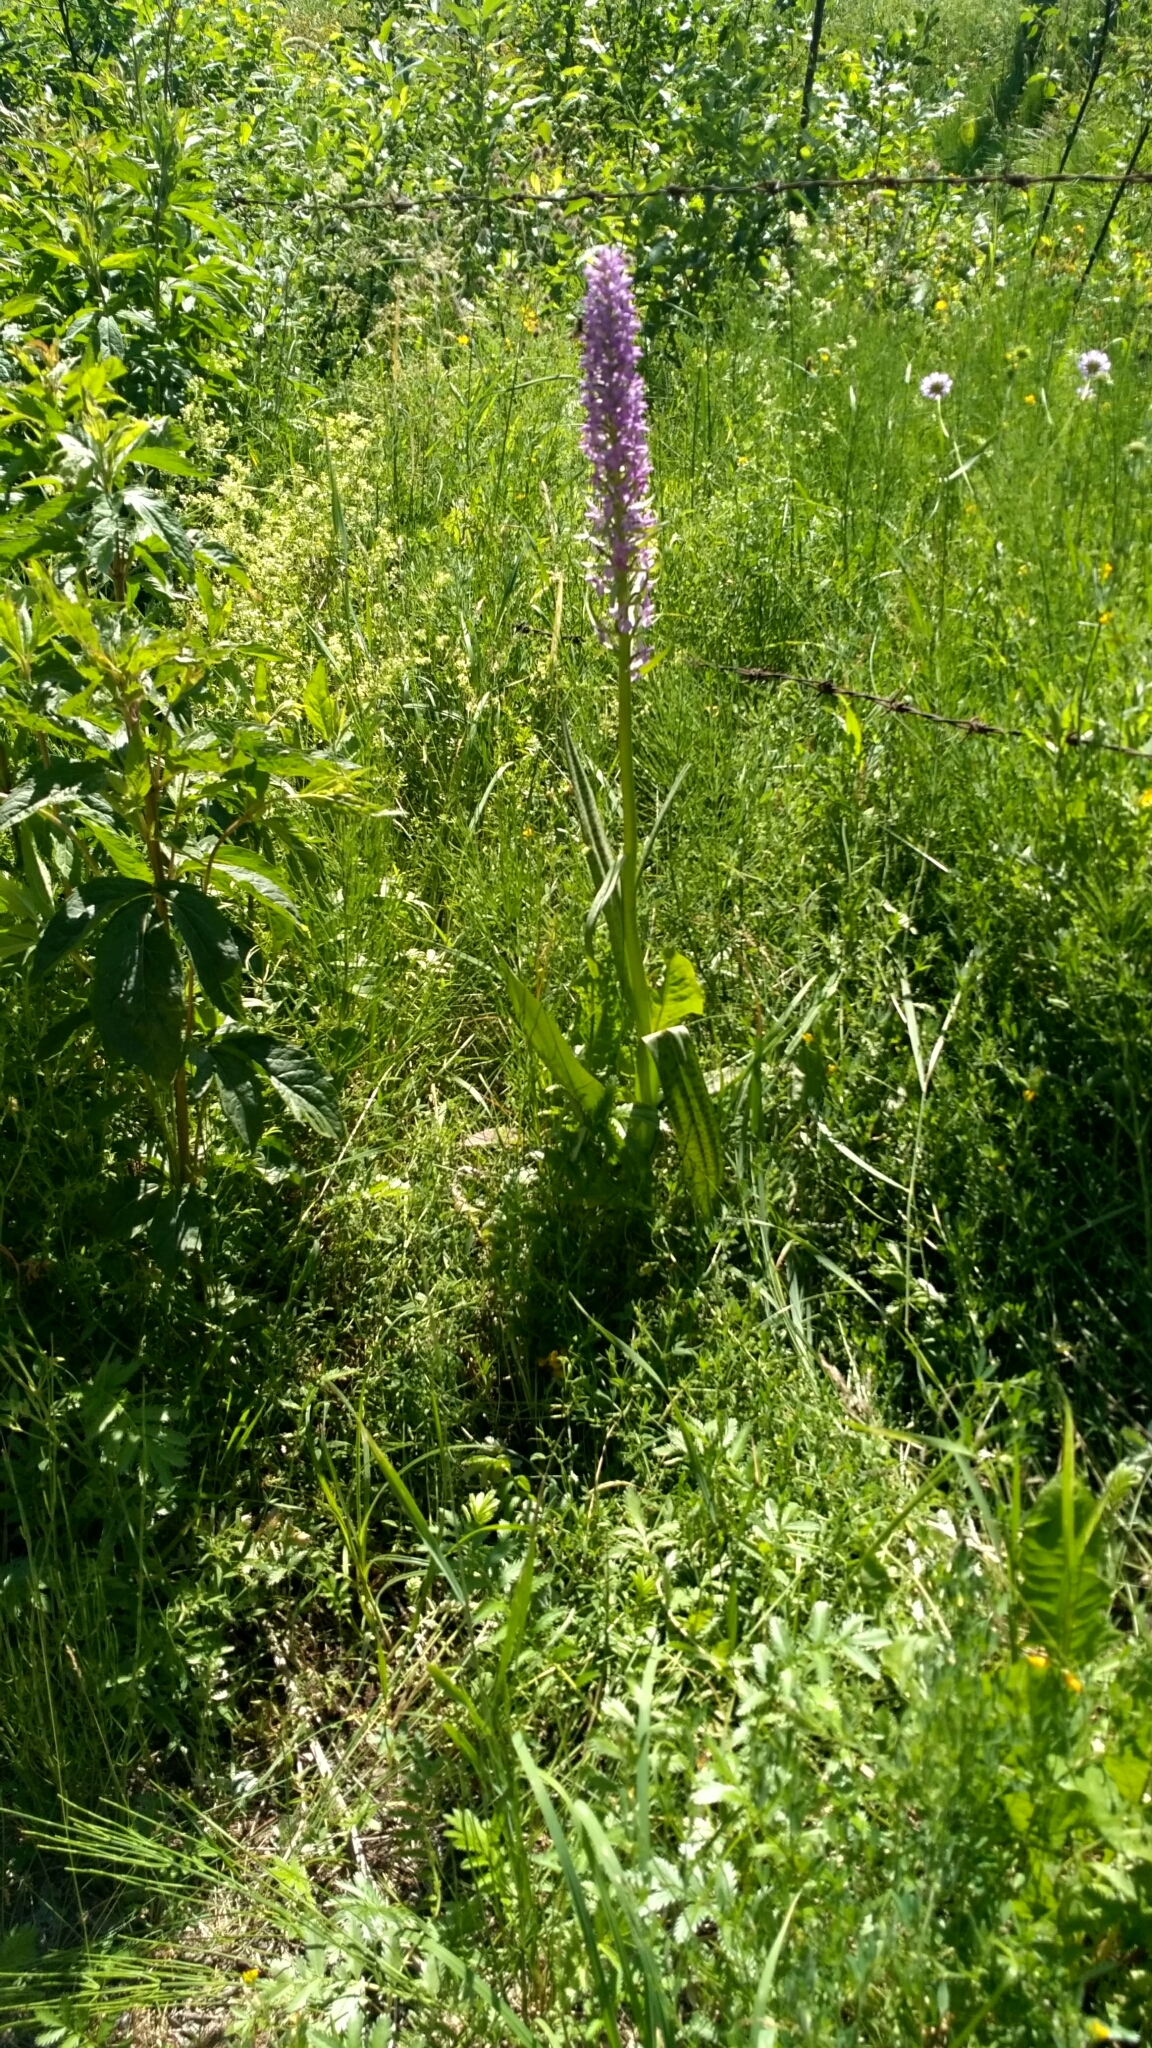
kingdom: Plantae
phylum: Tracheophyta
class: Liliopsida
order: Asparagales
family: Orchidaceae
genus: Dactylorhiza
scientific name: Dactylorhiza majalis
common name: Marsh orchid
